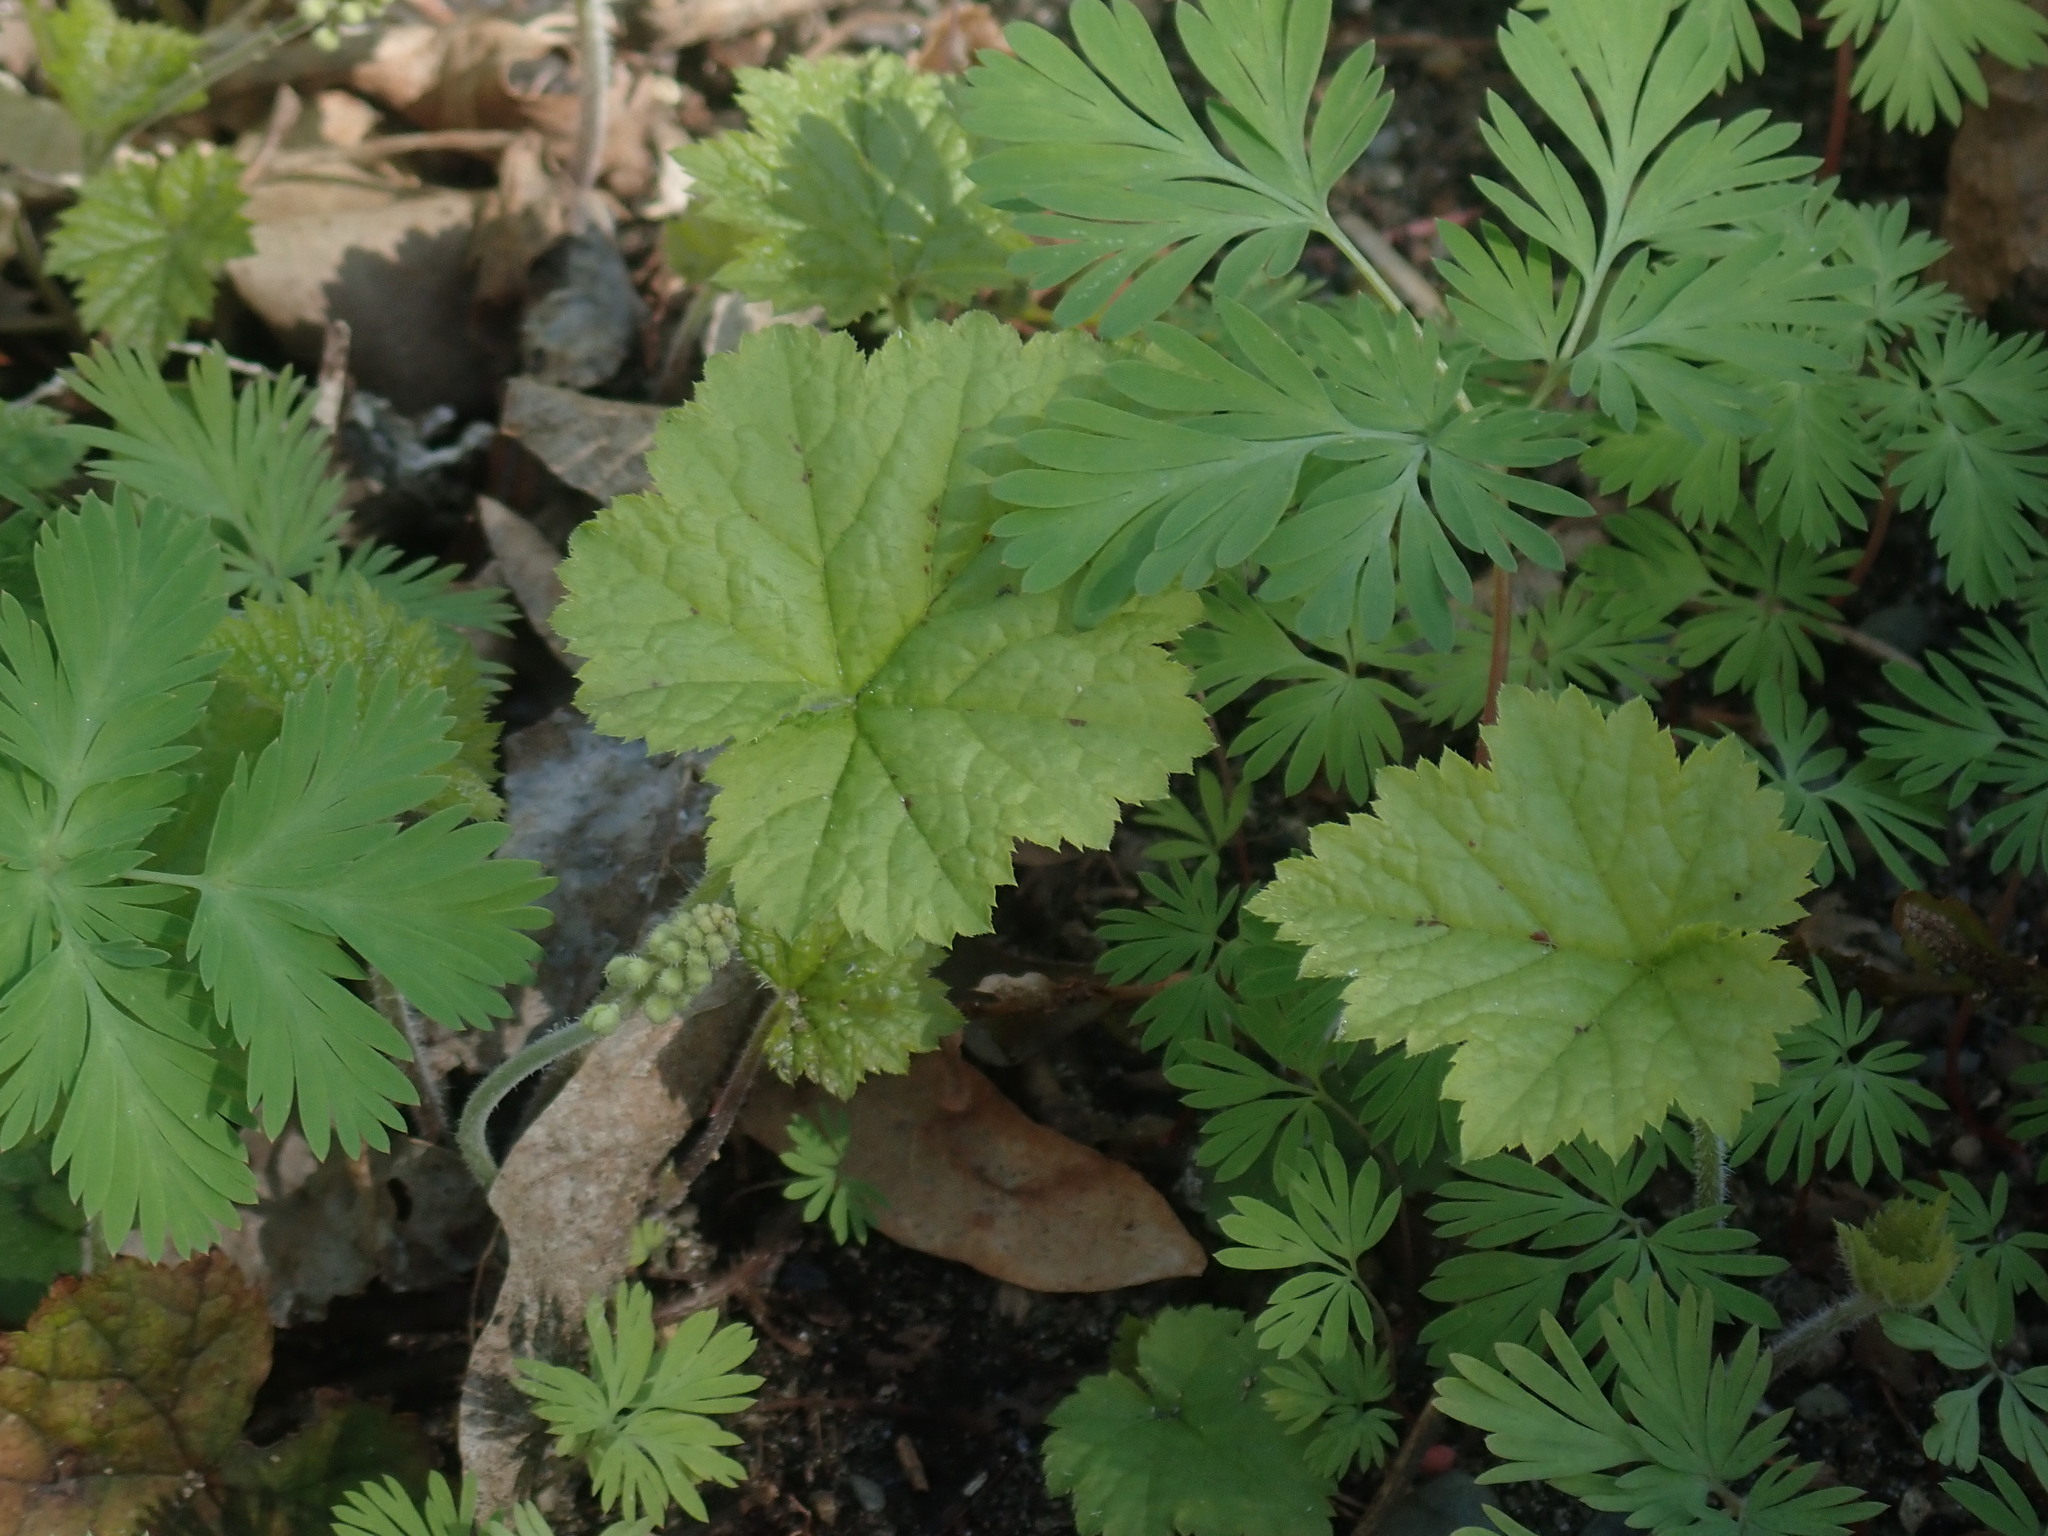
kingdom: Plantae
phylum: Tracheophyta
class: Magnoliopsida
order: Saxifragales
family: Saxifragaceae
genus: Tiarella
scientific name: Tiarella stolonifera
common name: Stoloniferous foamflower
